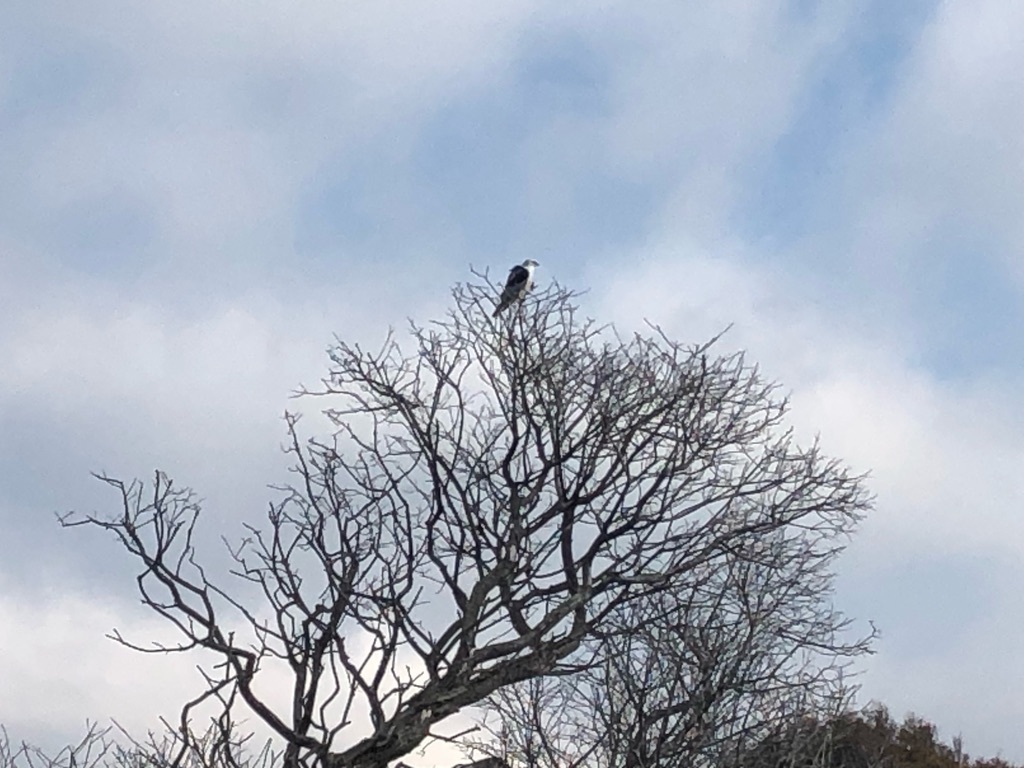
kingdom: Animalia
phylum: Chordata
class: Aves
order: Accipitriformes
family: Accipitridae
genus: Elanus
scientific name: Elanus leucurus
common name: White-tailed kite
